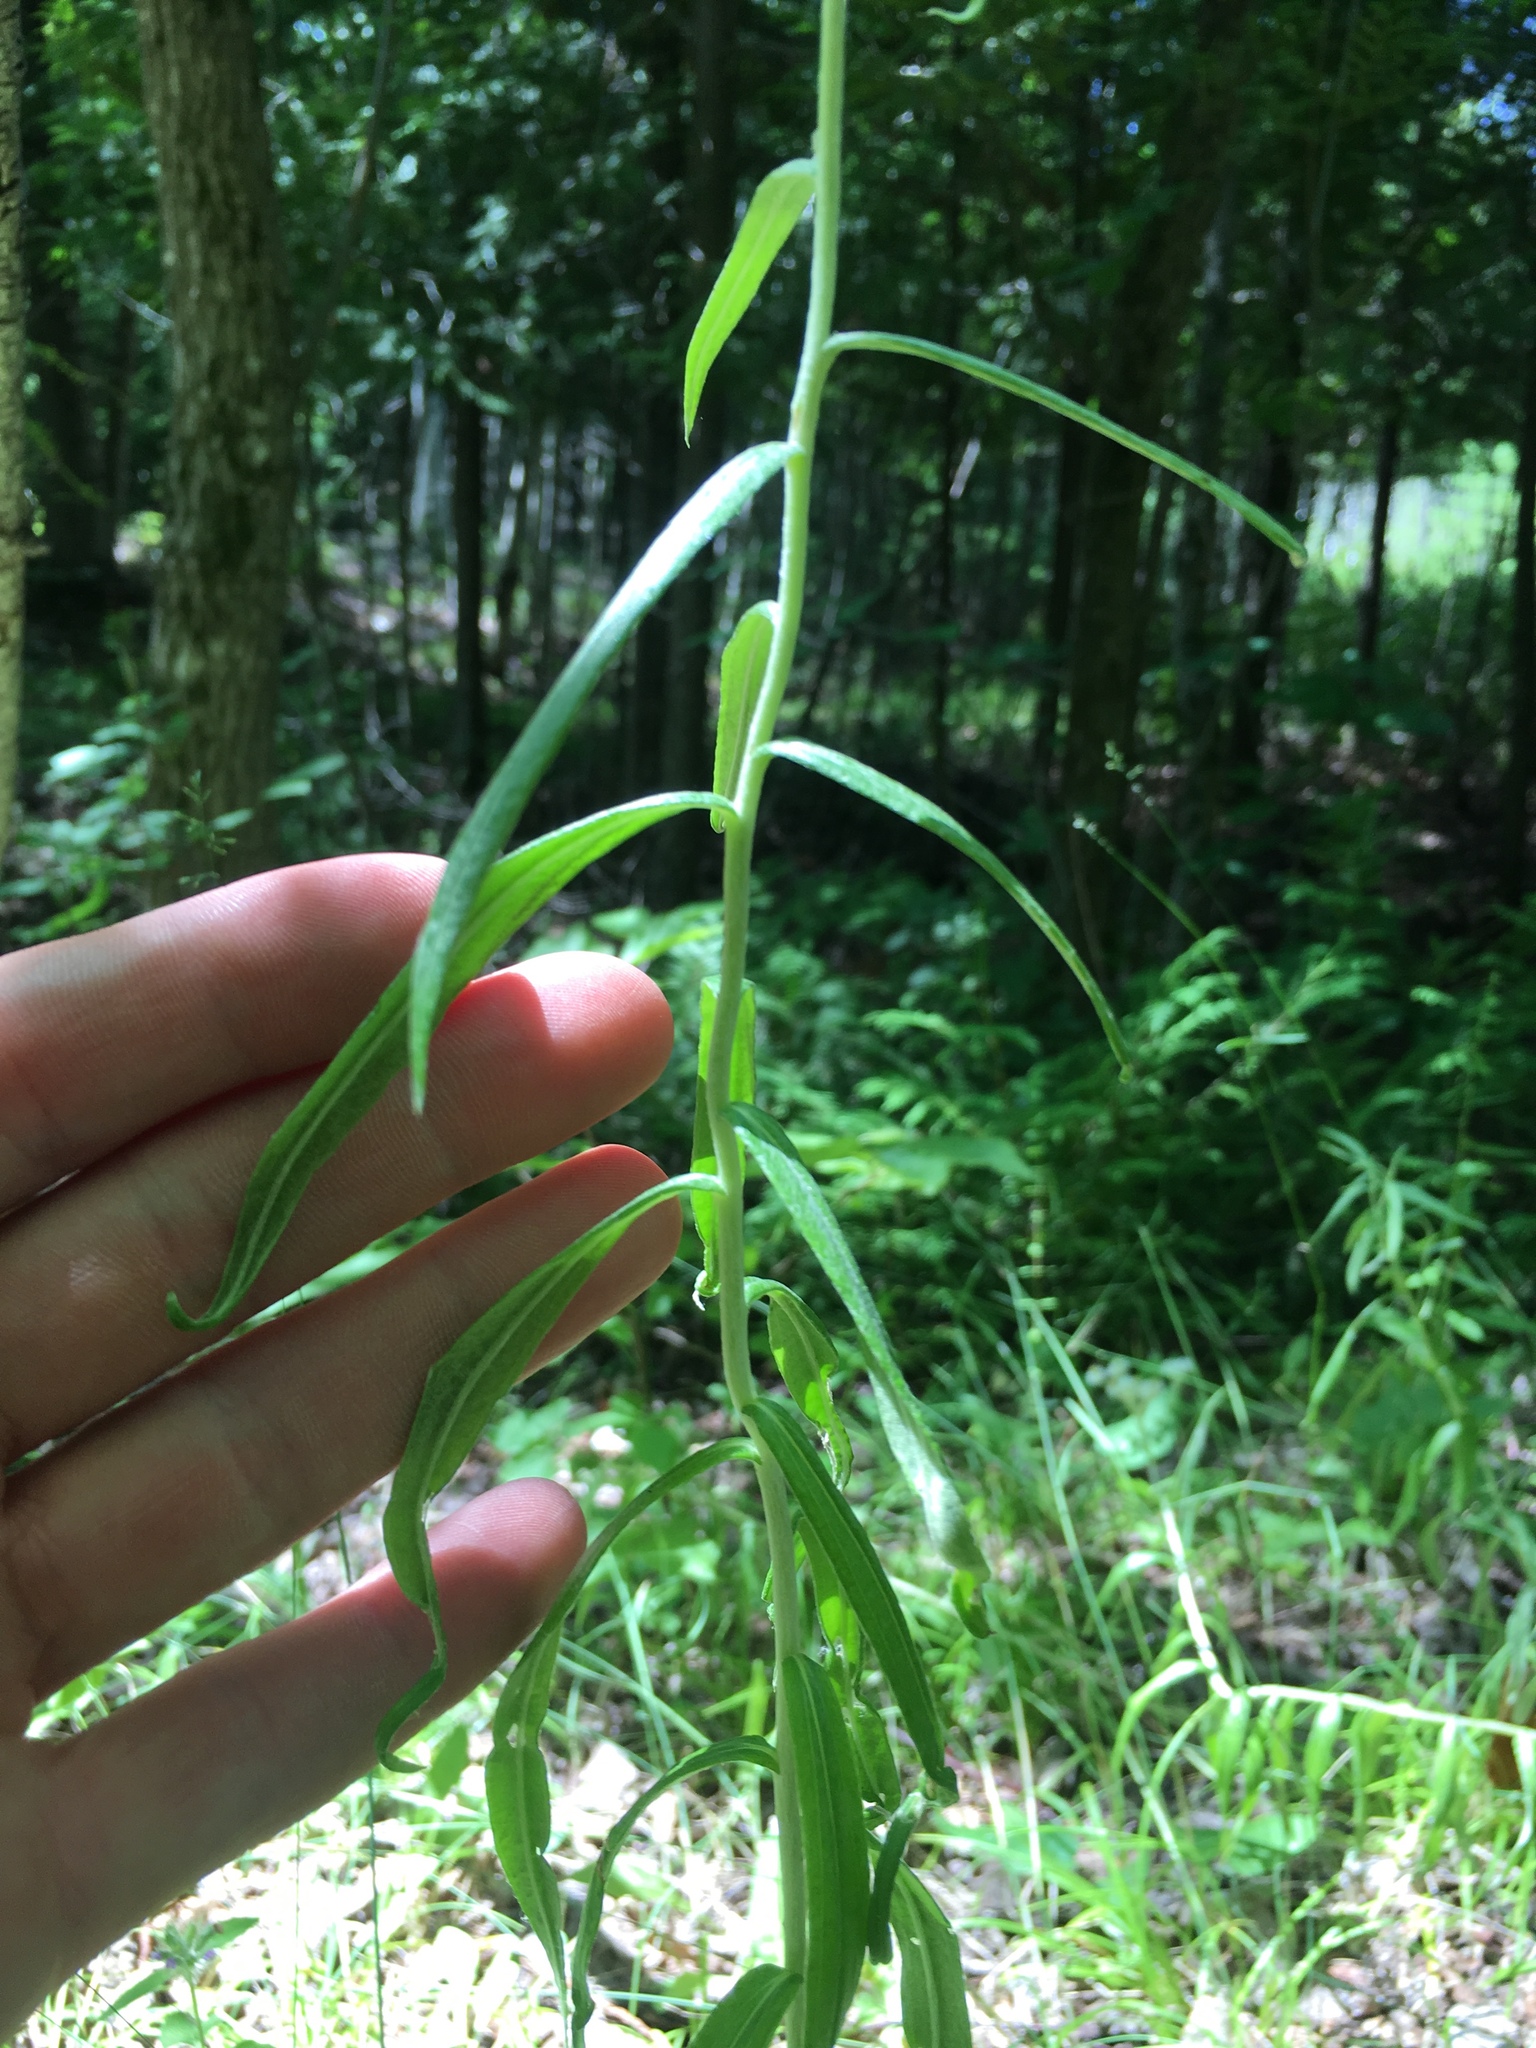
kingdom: Plantae
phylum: Tracheophyta
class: Magnoliopsida
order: Asterales
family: Asteraceae
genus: Anaphalis
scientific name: Anaphalis margaritacea
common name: Pearly everlasting
